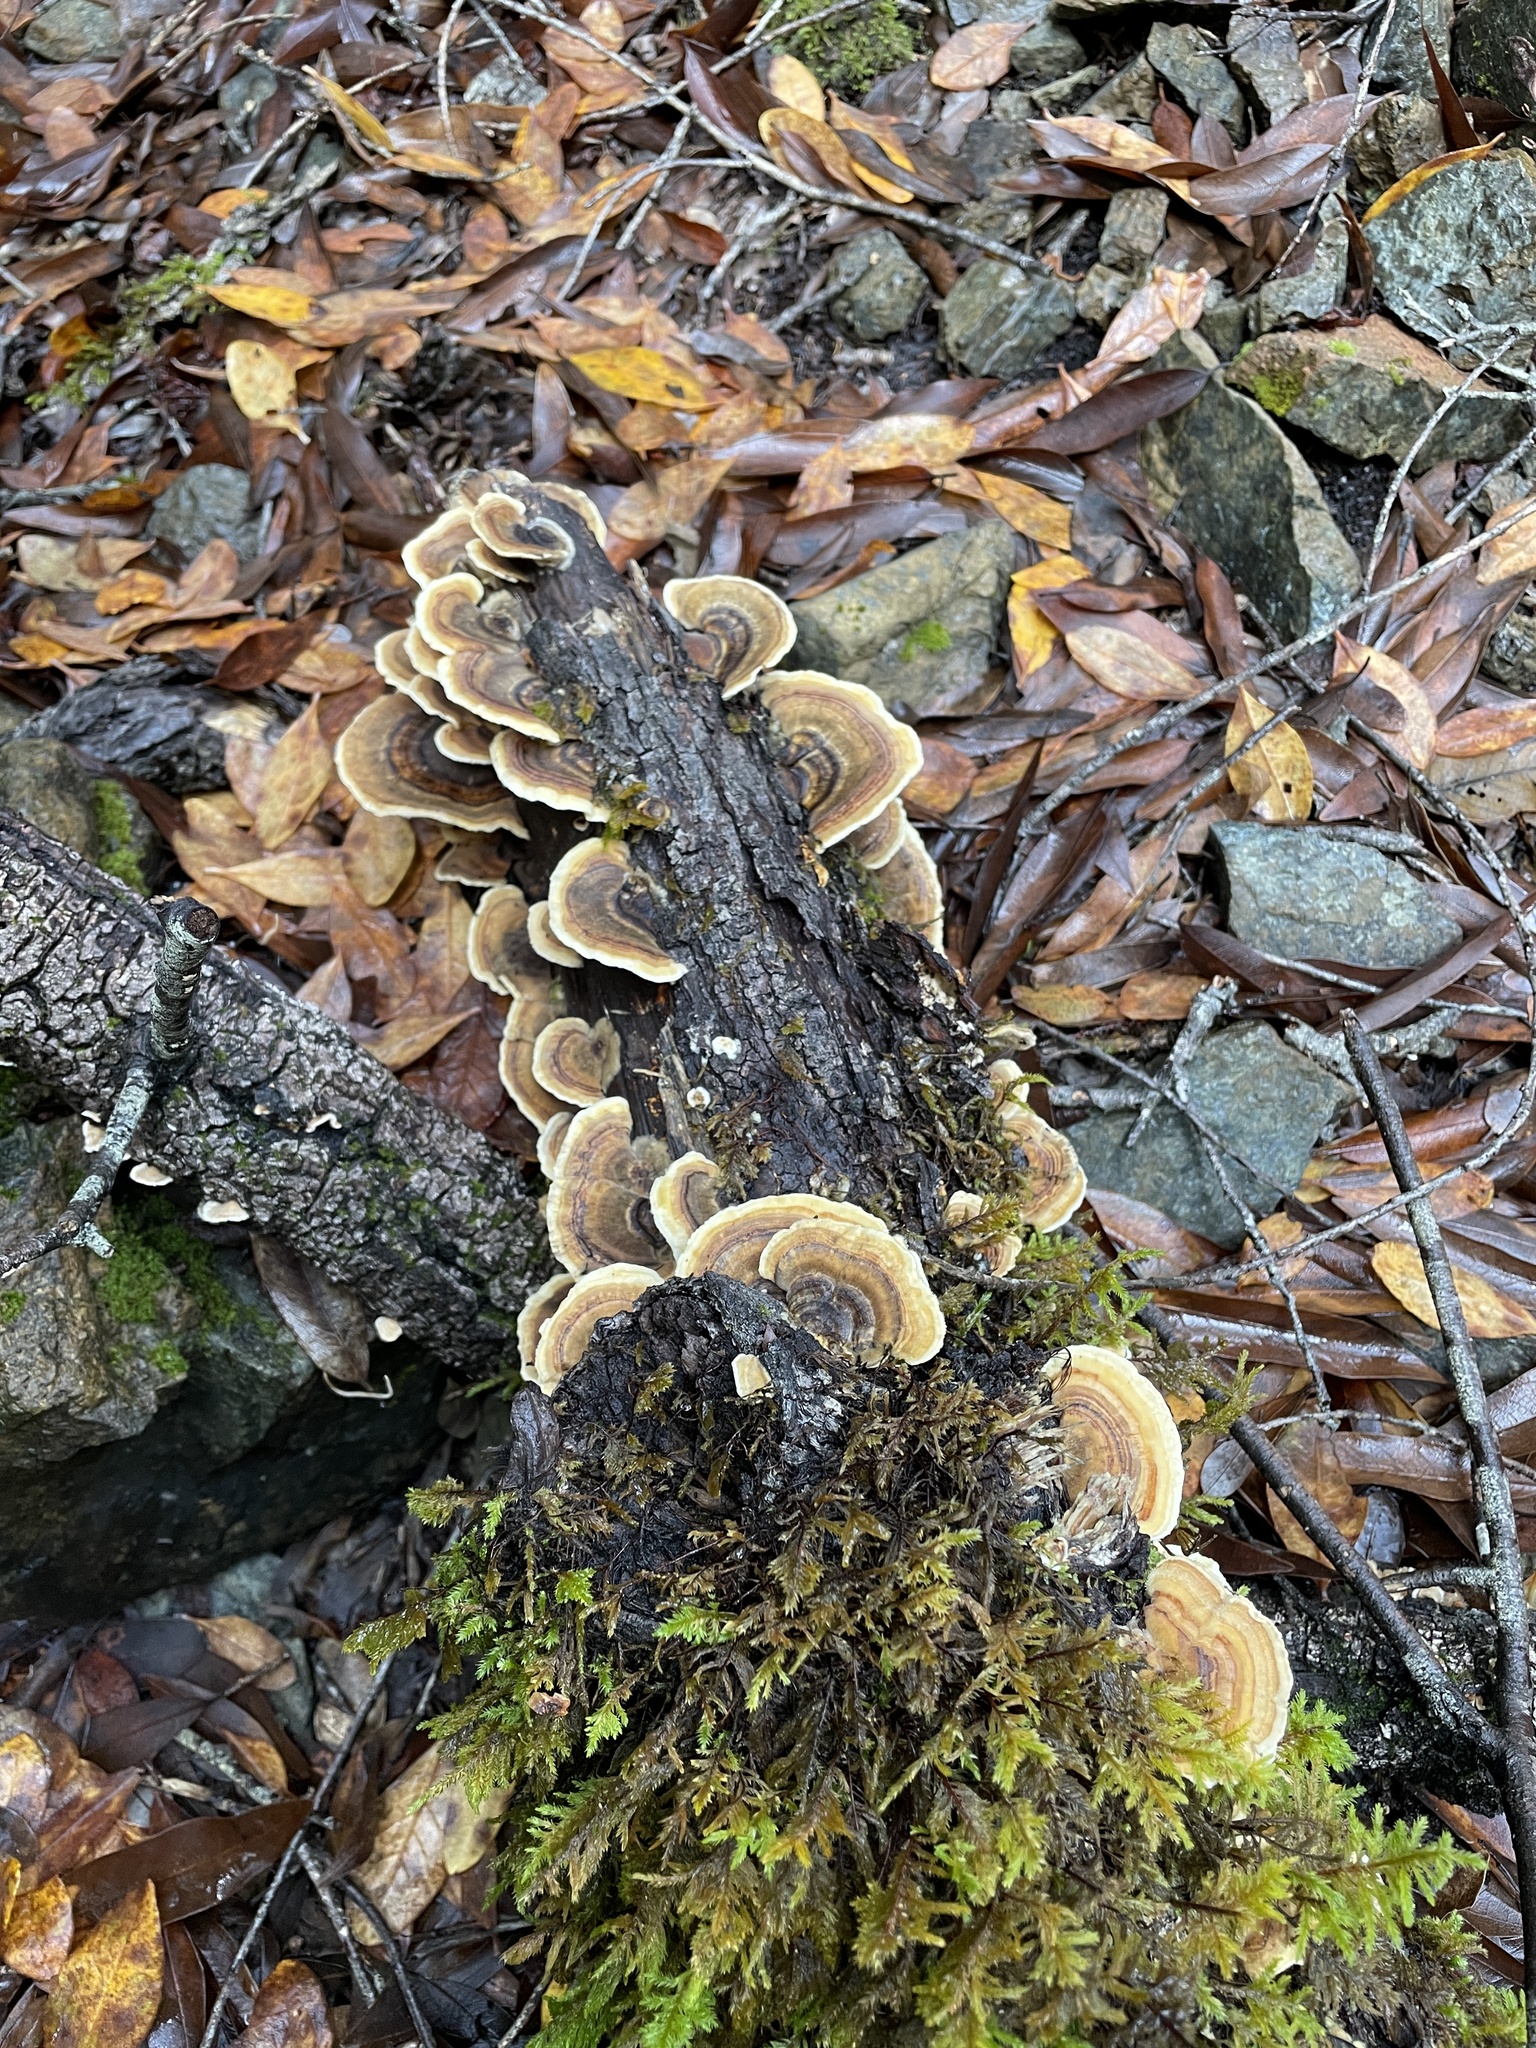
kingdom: Fungi
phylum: Basidiomycota
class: Agaricomycetes
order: Polyporales
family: Polyporaceae
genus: Trametes
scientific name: Trametes versicolor
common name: Turkeytail
